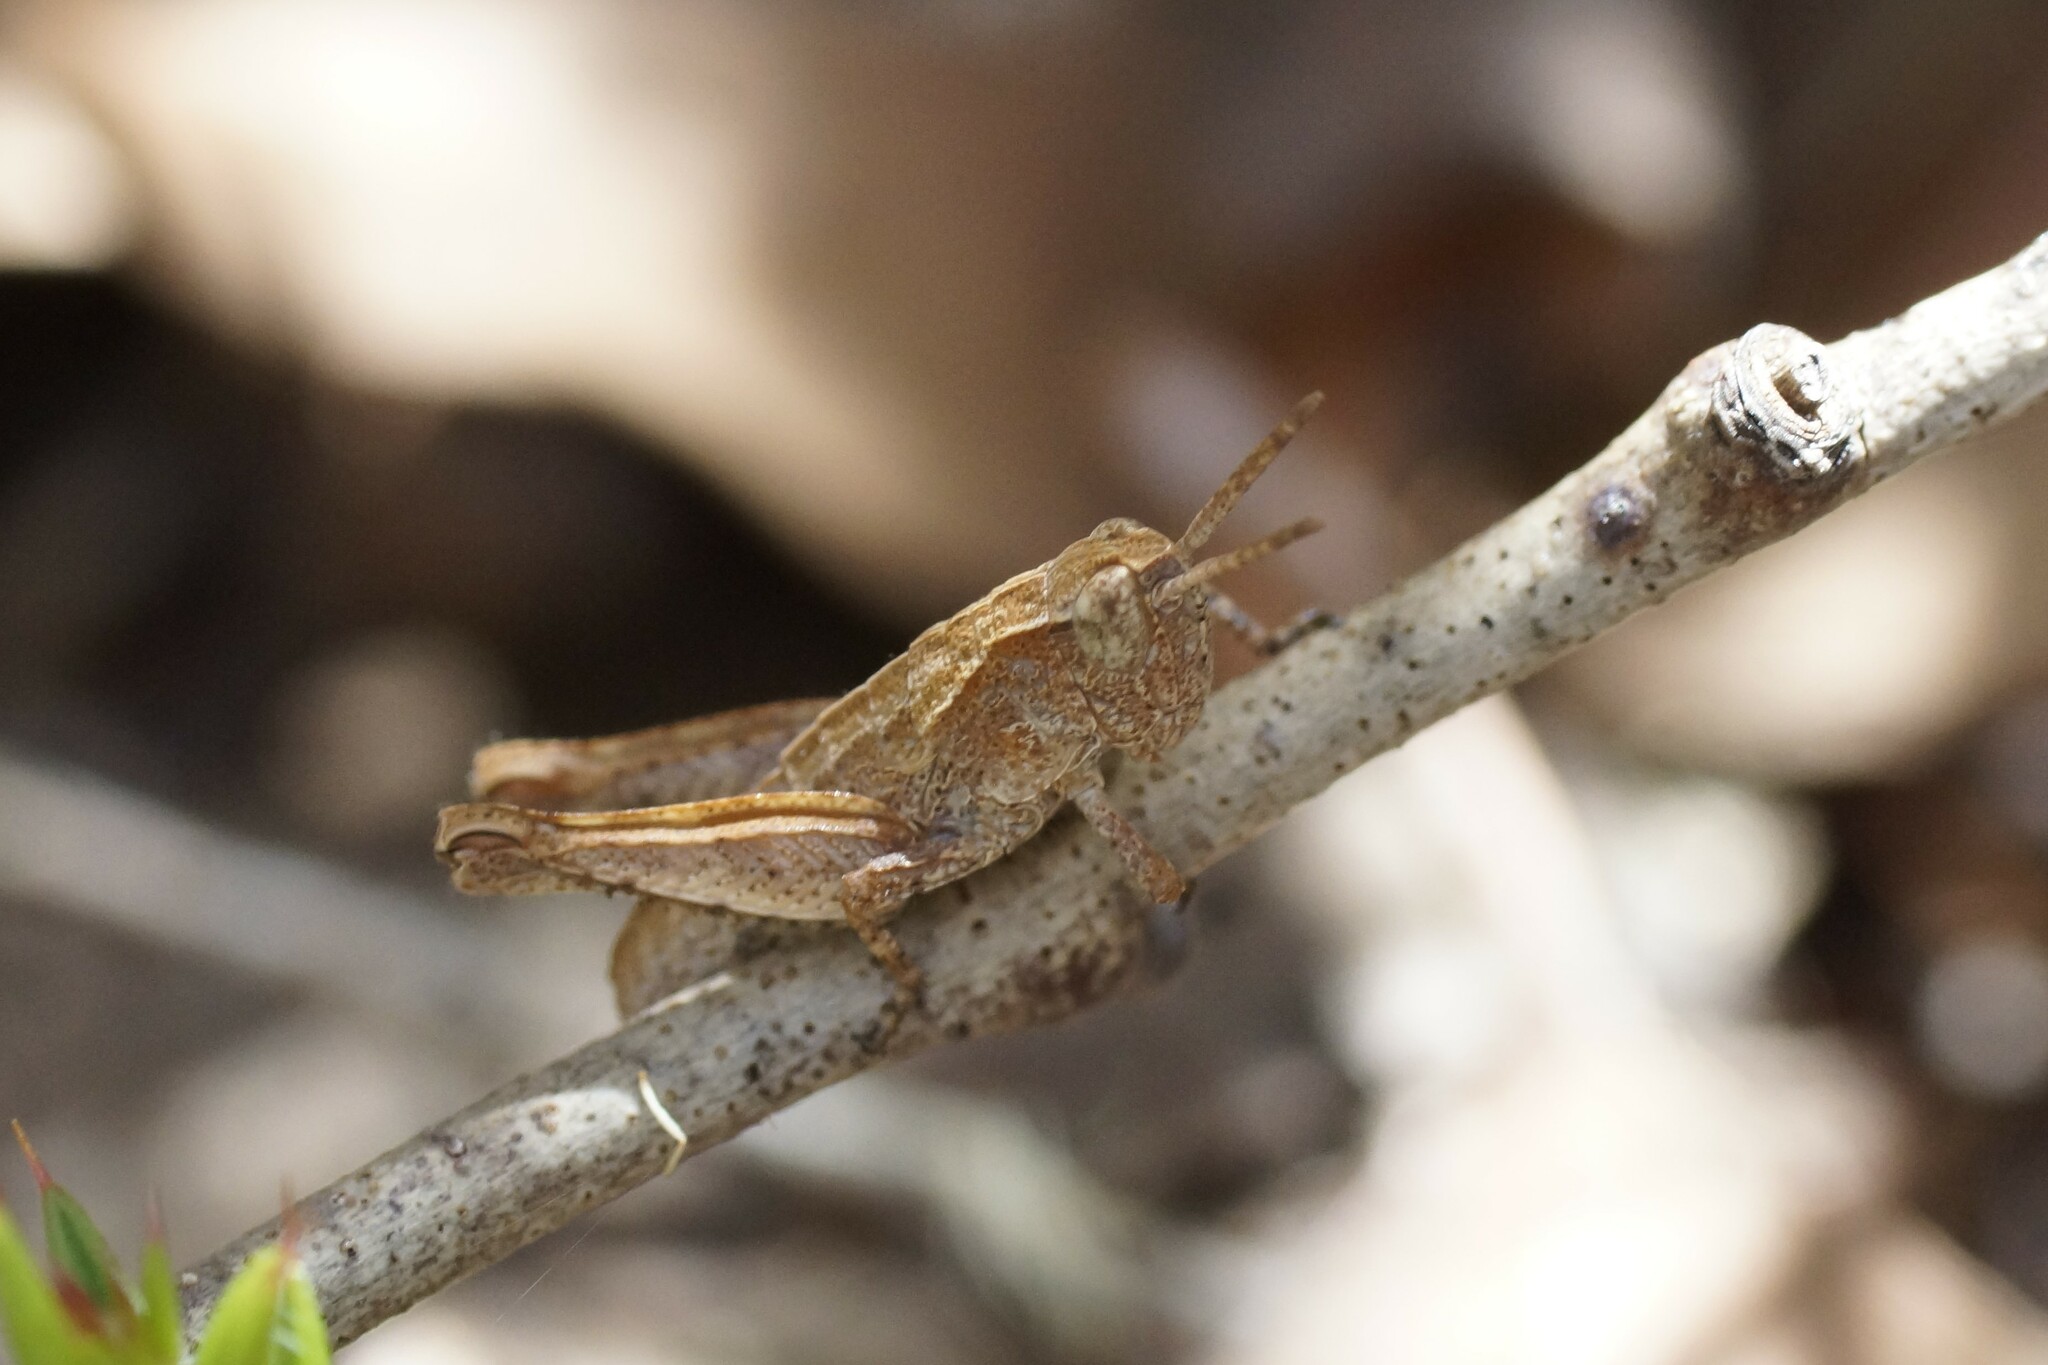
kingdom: Animalia
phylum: Arthropoda
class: Insecta
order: Orthoptera
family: Acrididae
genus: Tasmaniacris
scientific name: Tasmaniacris tasmaniensis
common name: Tasmanian grasshopper
